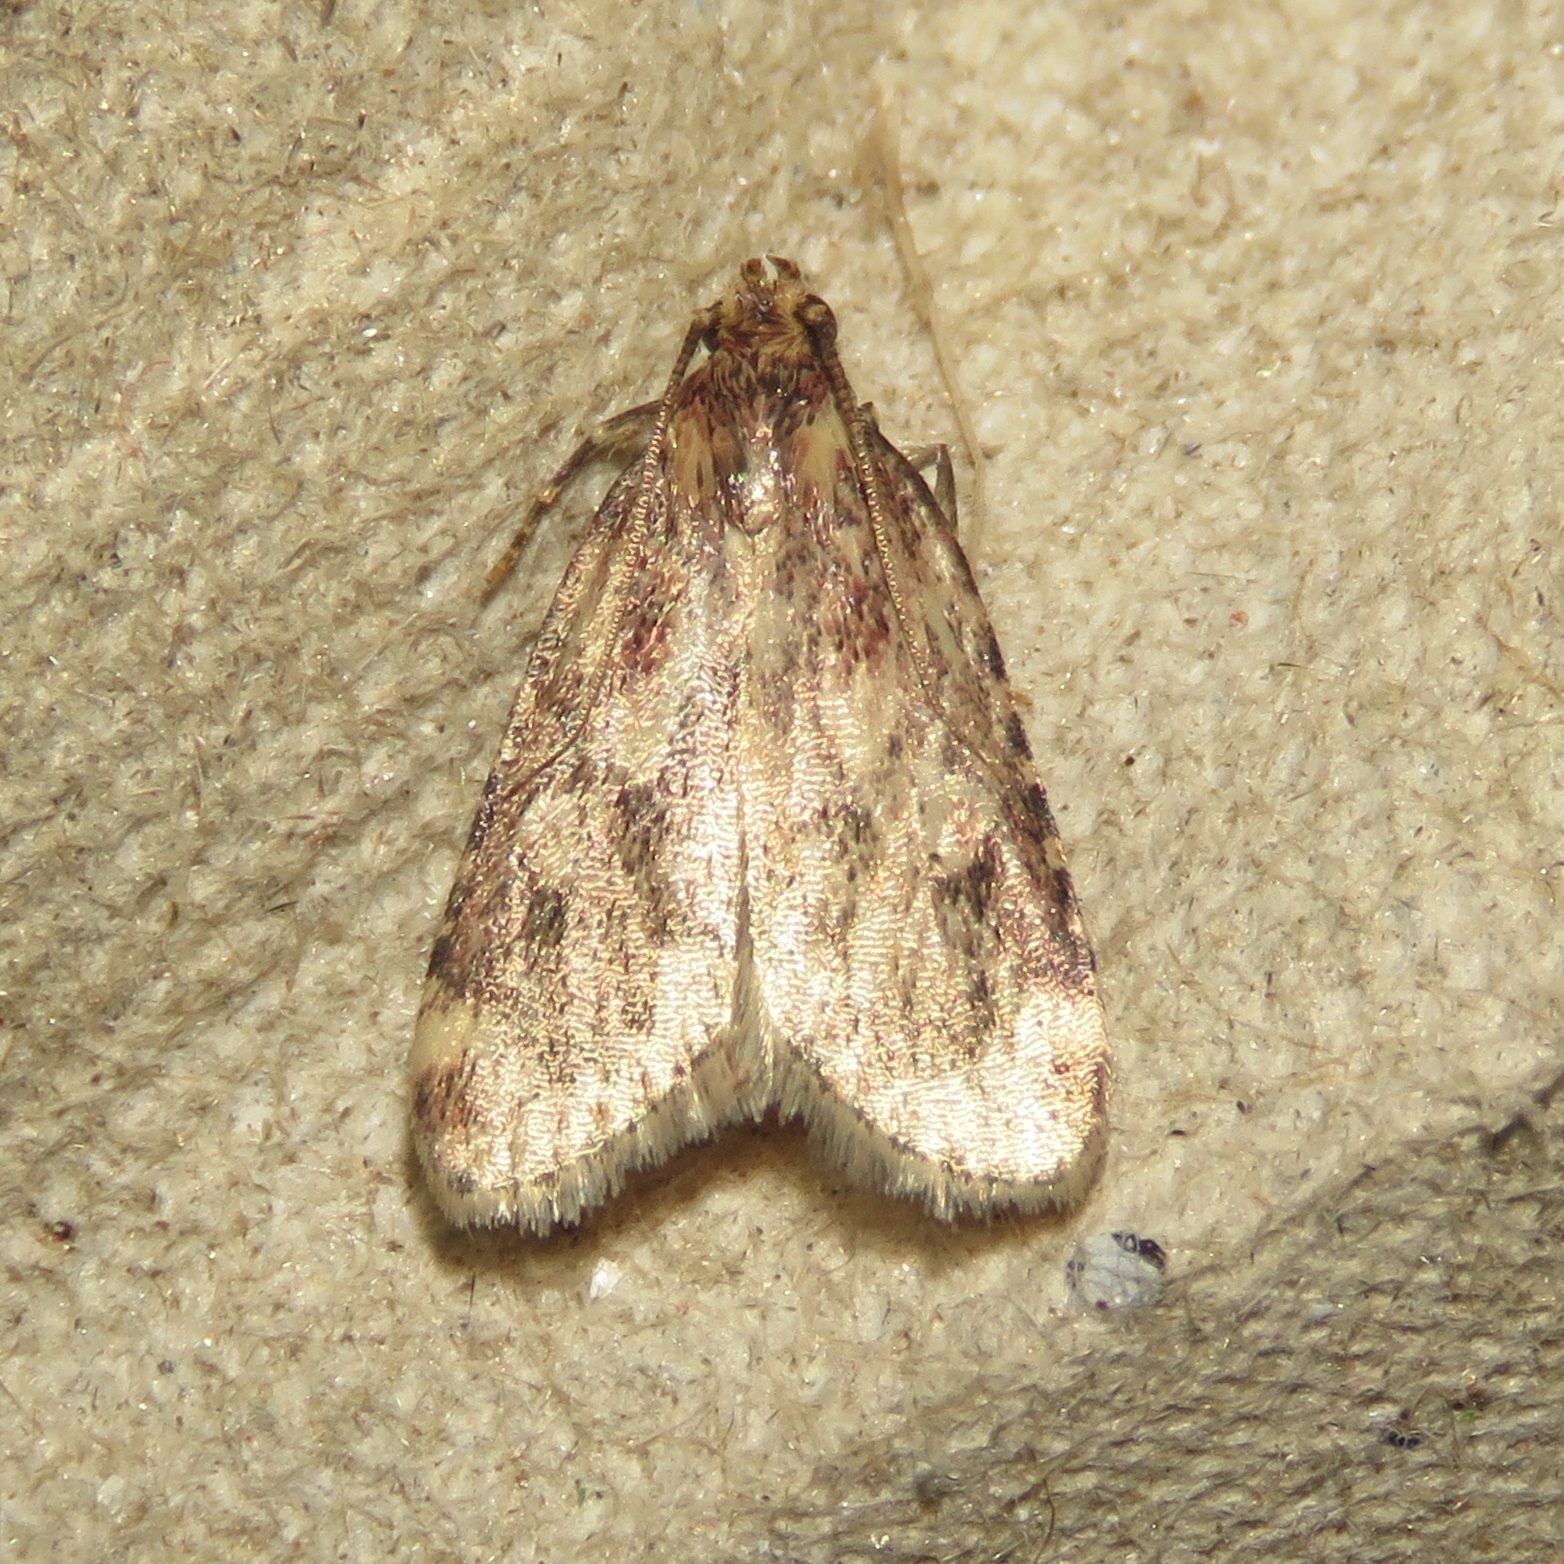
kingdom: Animalia
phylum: Arthropoda
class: Insecta
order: Lepidoptera
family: Pyralidae
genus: Aglossa
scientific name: Aglossa disciferalis
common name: Pink-masked pyralid moth
